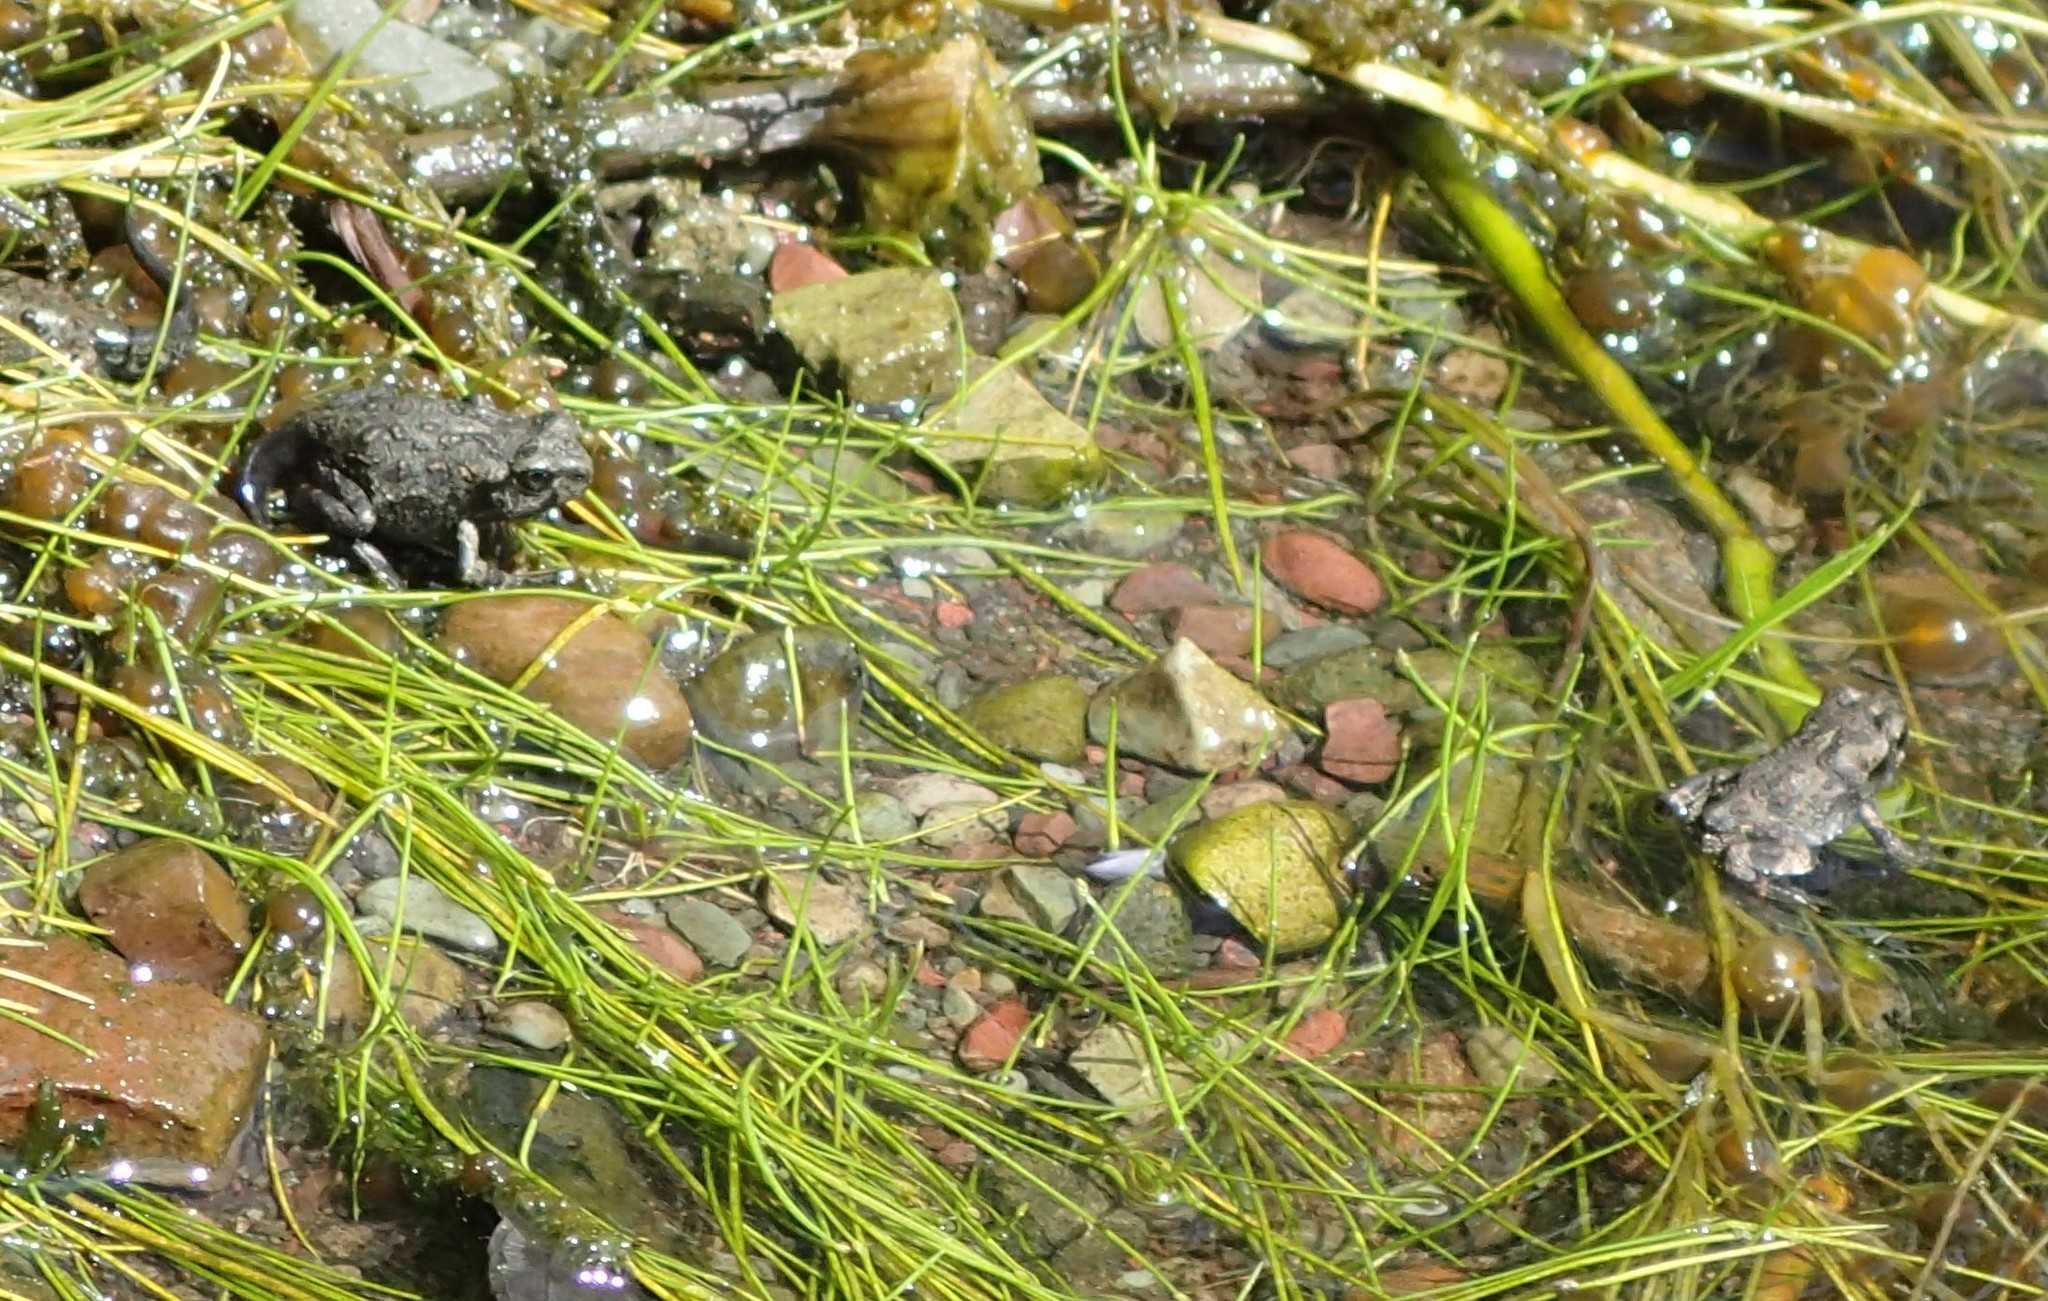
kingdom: Animalia
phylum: Chordata
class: Amphibia
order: Anura
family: Bufonidae
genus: Anaxyrus
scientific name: Anaxyrus boreas
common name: Western toad
